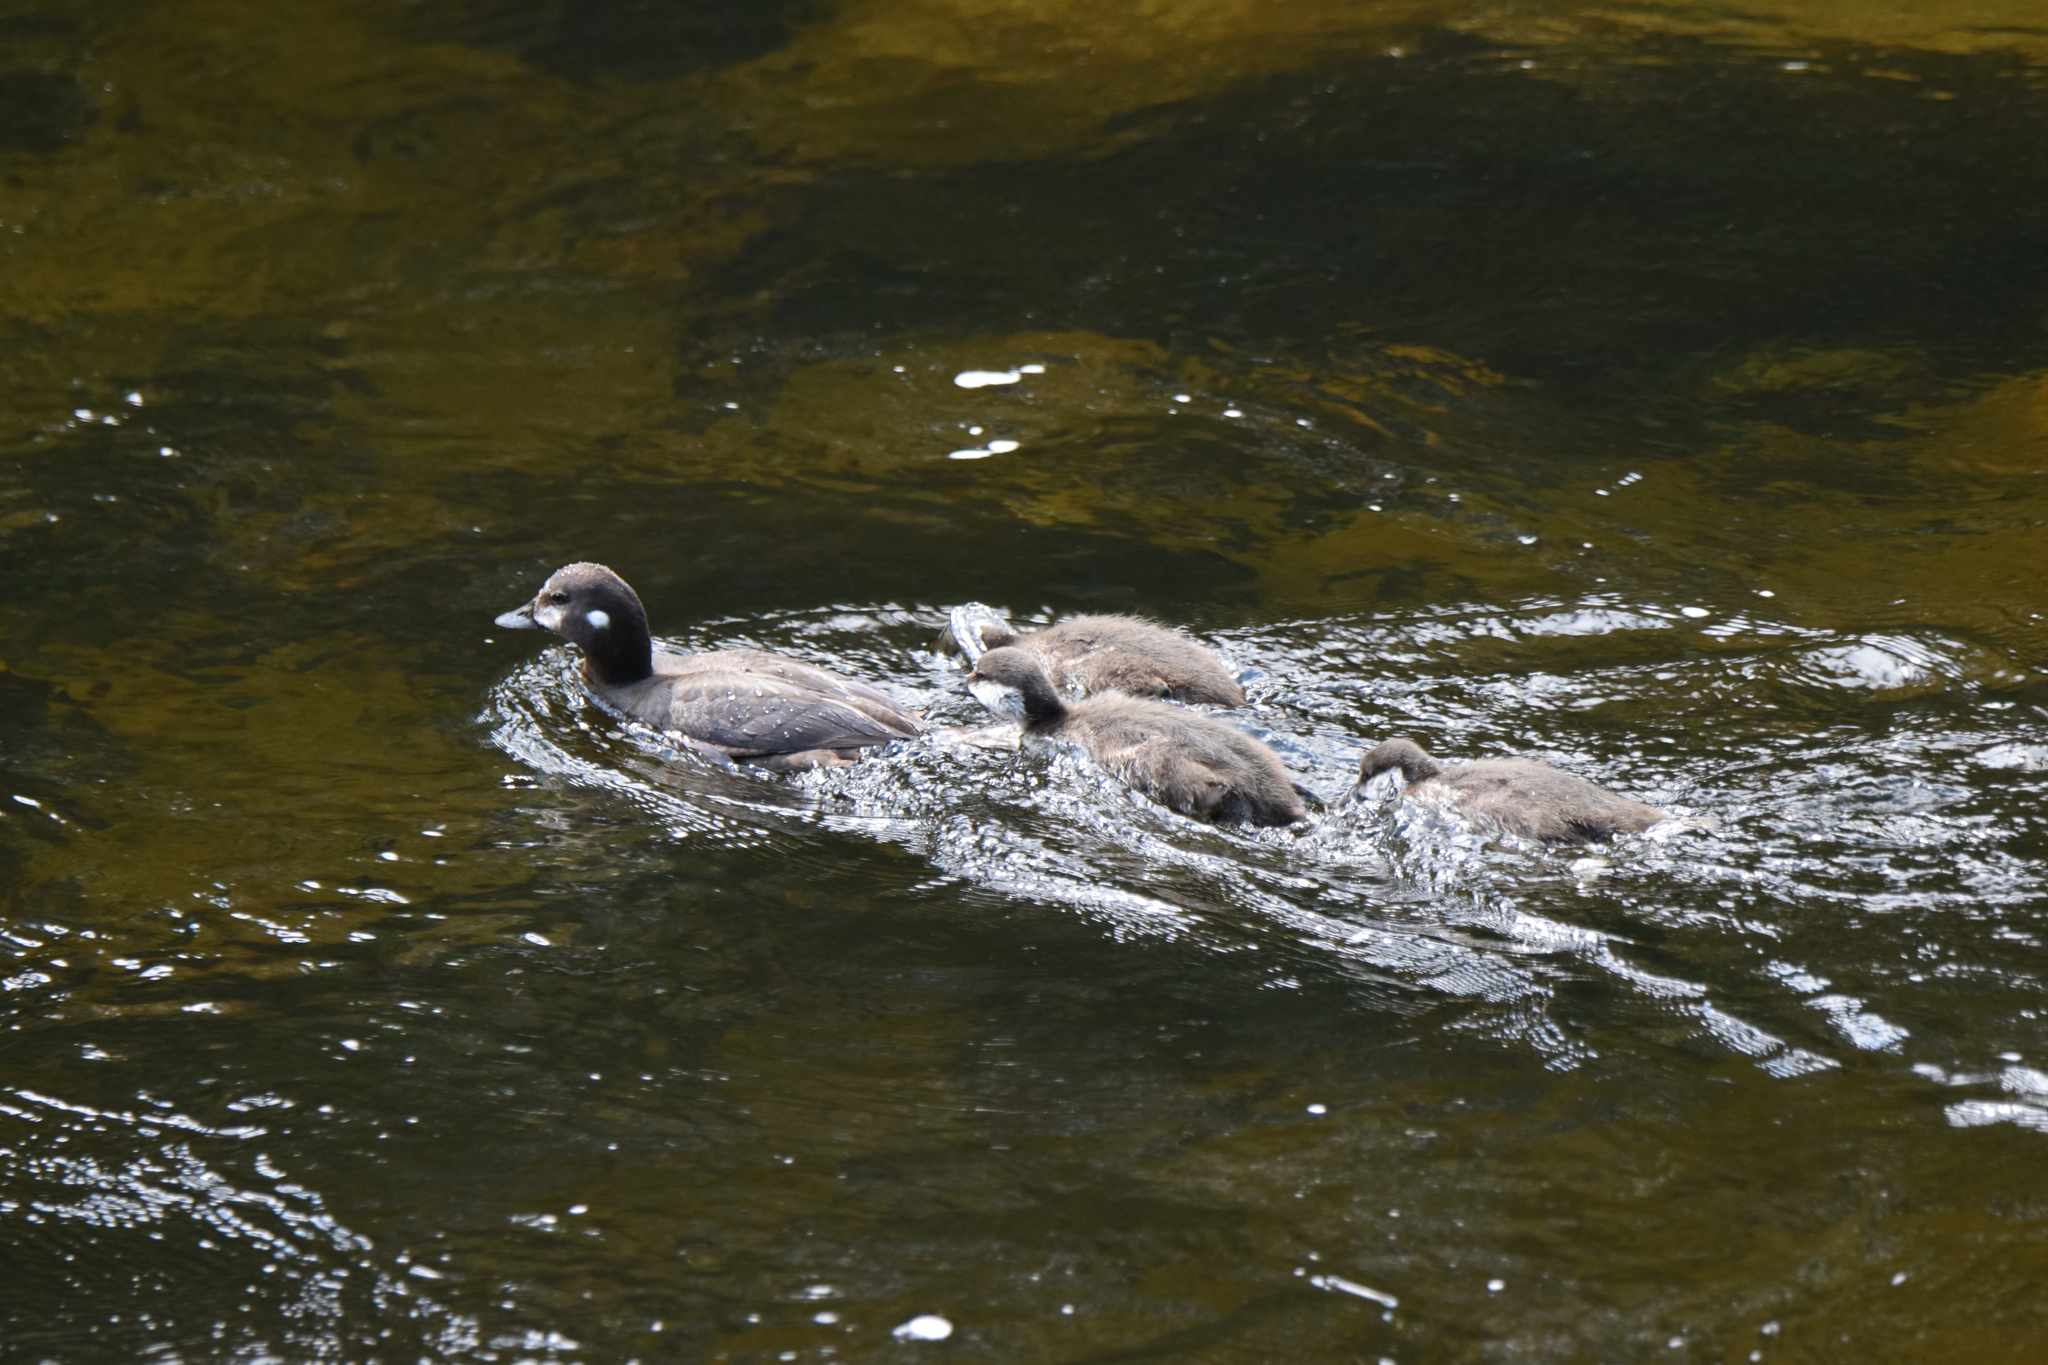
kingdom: Animalia
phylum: Chordata
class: Aves
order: Anseriformes
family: Anatidae
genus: Histrionicus
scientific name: Histrionicus histrionicus
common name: Harlequin duck
